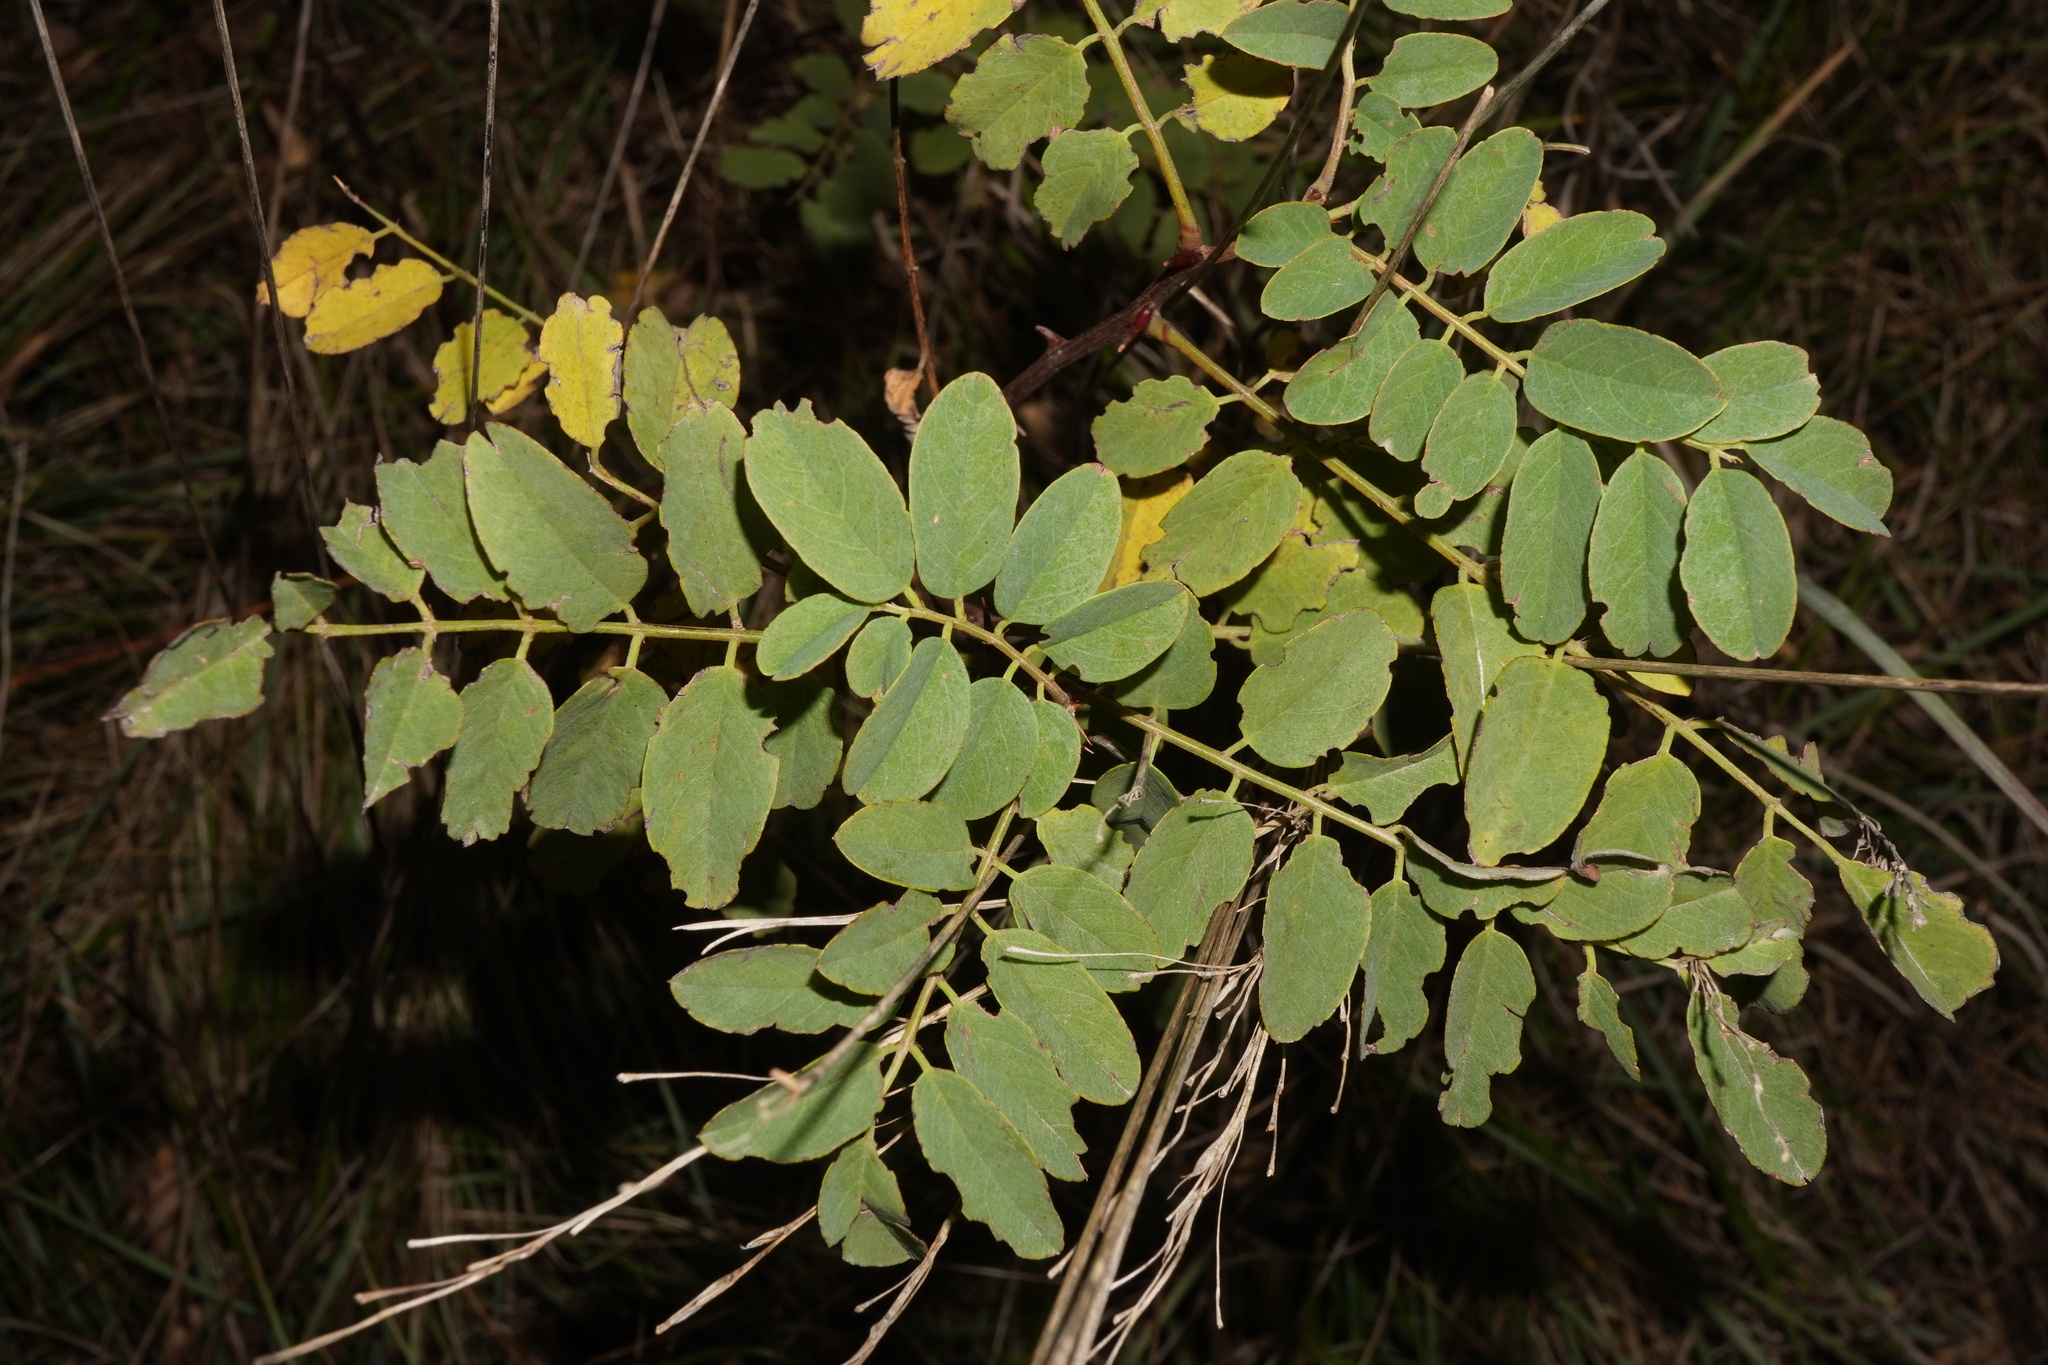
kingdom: Plantae
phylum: Tracheophyta
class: Magnoliopsida
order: Fabales
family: Fabaceae
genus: Robinia
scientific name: Robinia pseudoacacia
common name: Black locust
